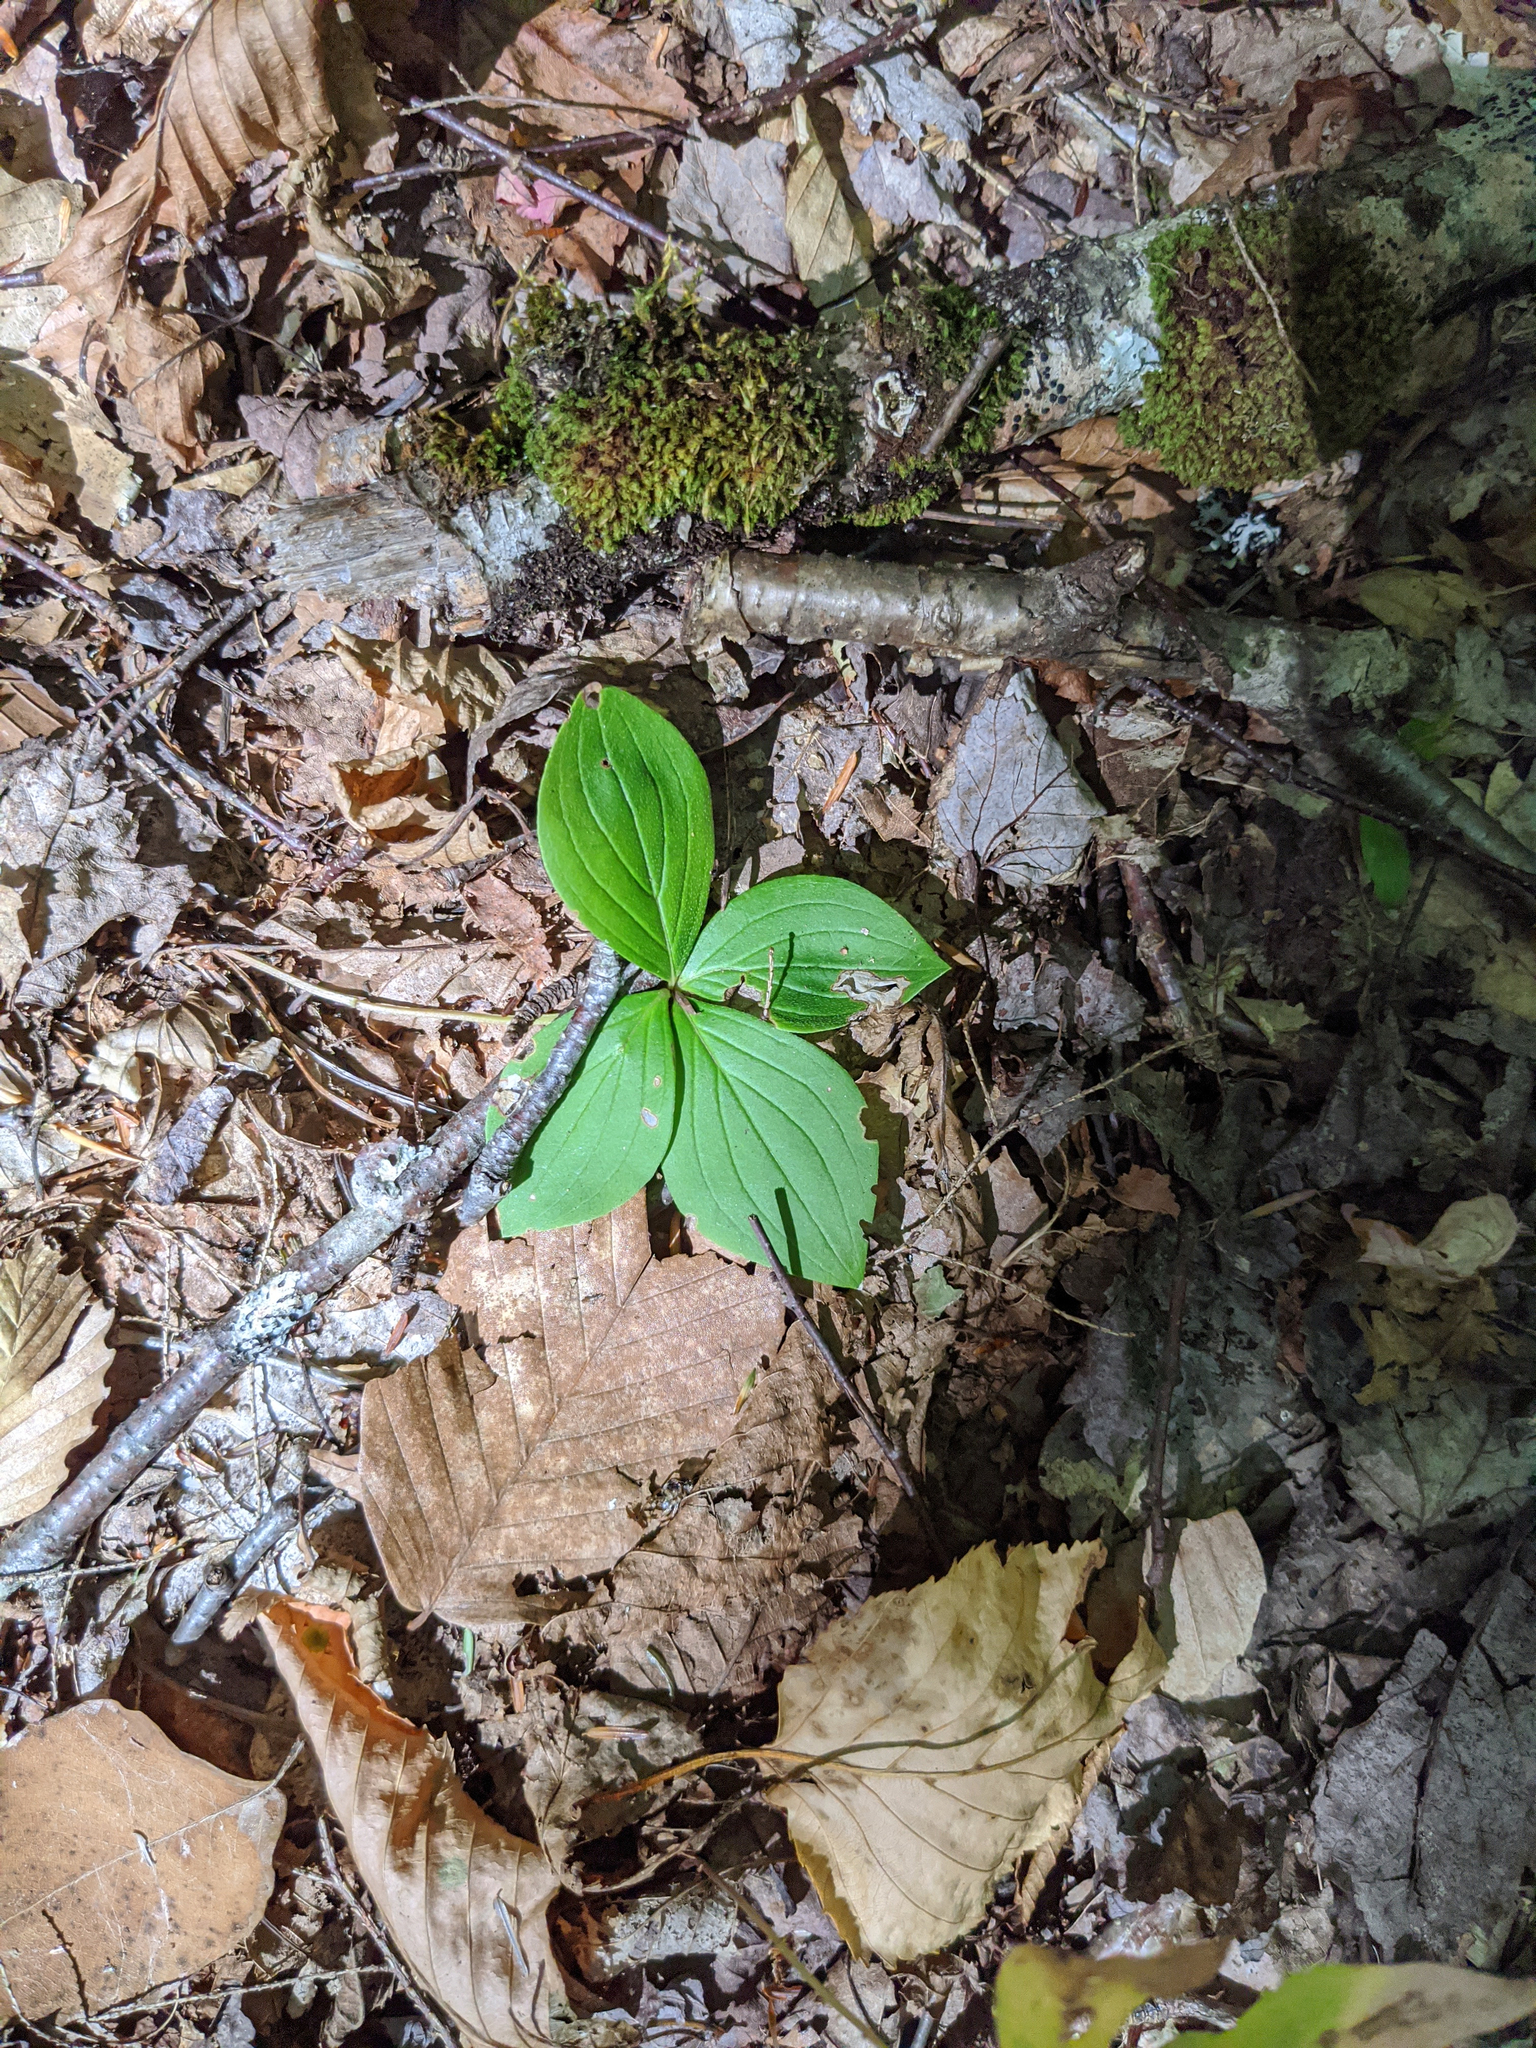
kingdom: Plantae
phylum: Tracheophyta
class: Magnoliopsida
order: Cornales
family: Cornaceae
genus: Cornus
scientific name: Cornus canadensis
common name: Creeping dogwood
